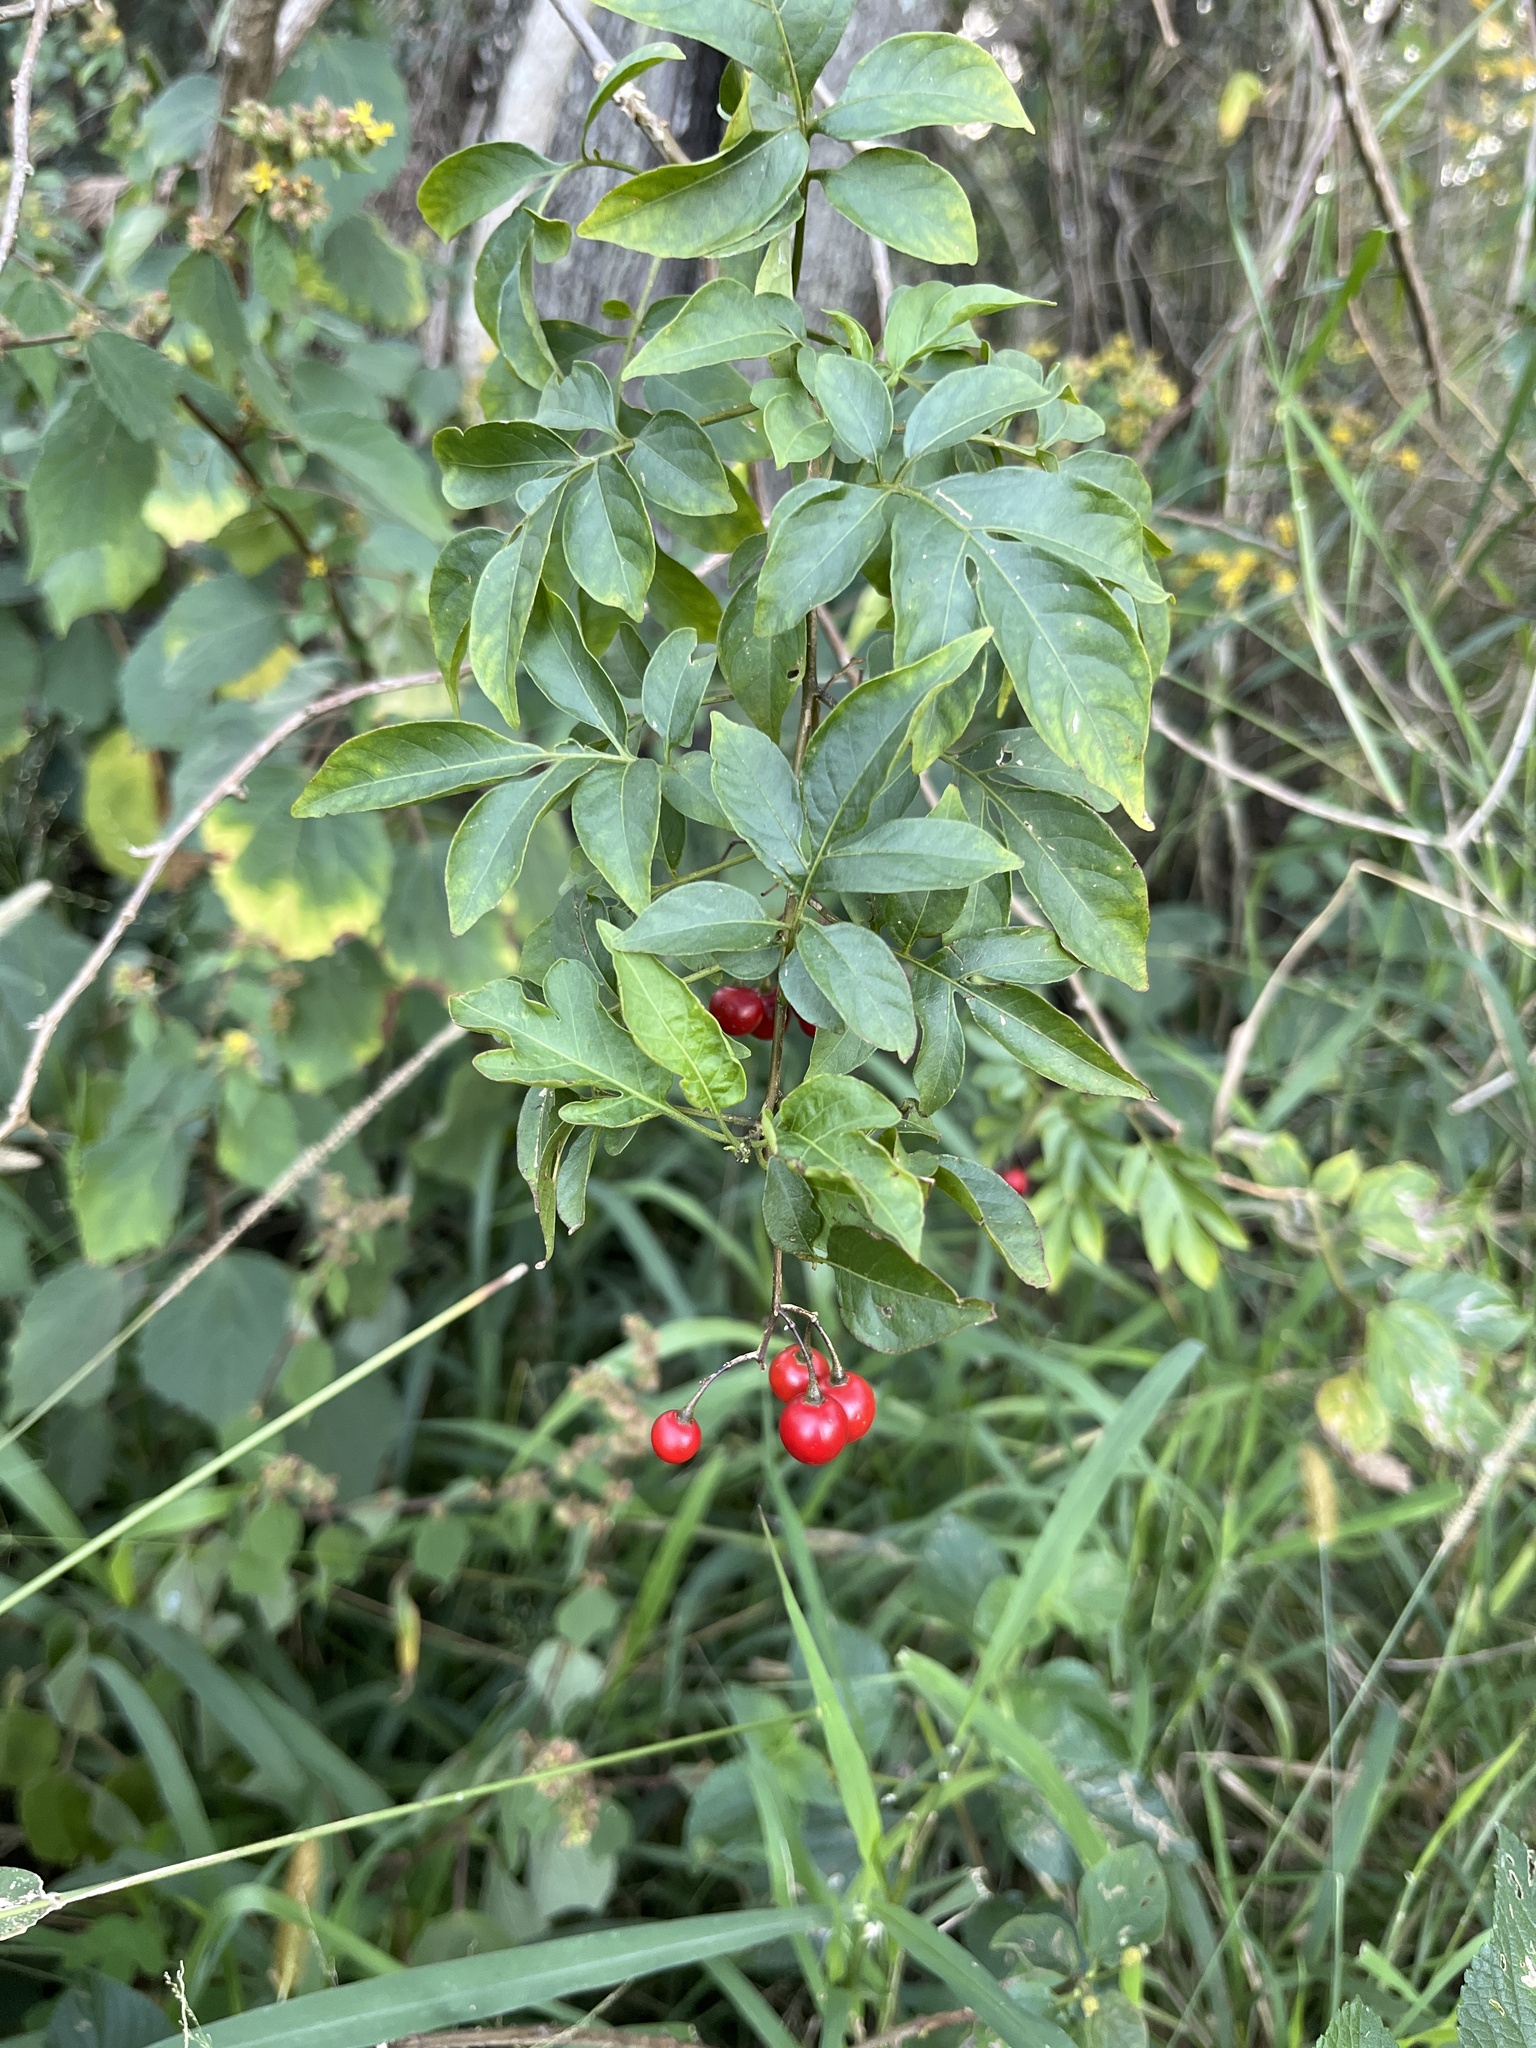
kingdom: Plantae
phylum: Tracheophyta
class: Magnoliopsida
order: Solanales
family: Solanaceae
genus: Solanum
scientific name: Solanum seaforthianum
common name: Brazilian nightshade
